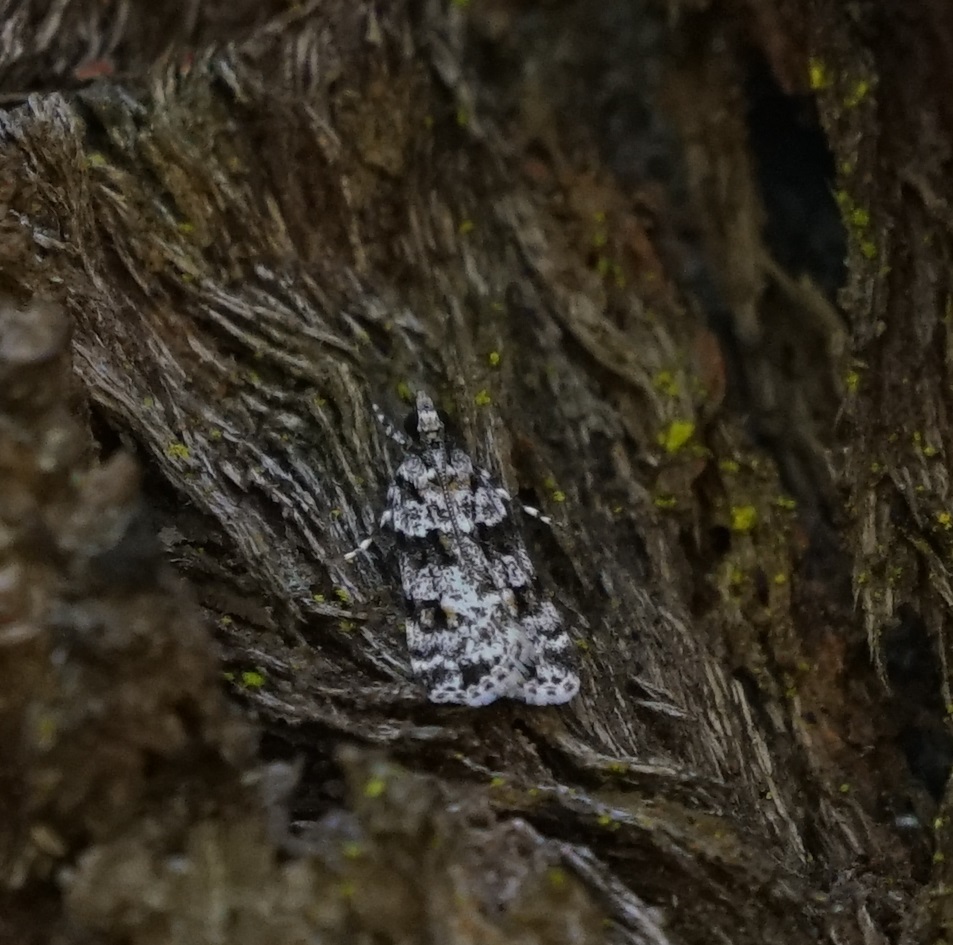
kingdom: Animalia
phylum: Arthropoda
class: Insecta
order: Lepidoptera
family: Crambidae
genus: Scoparia
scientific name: Scoparia chiasta
